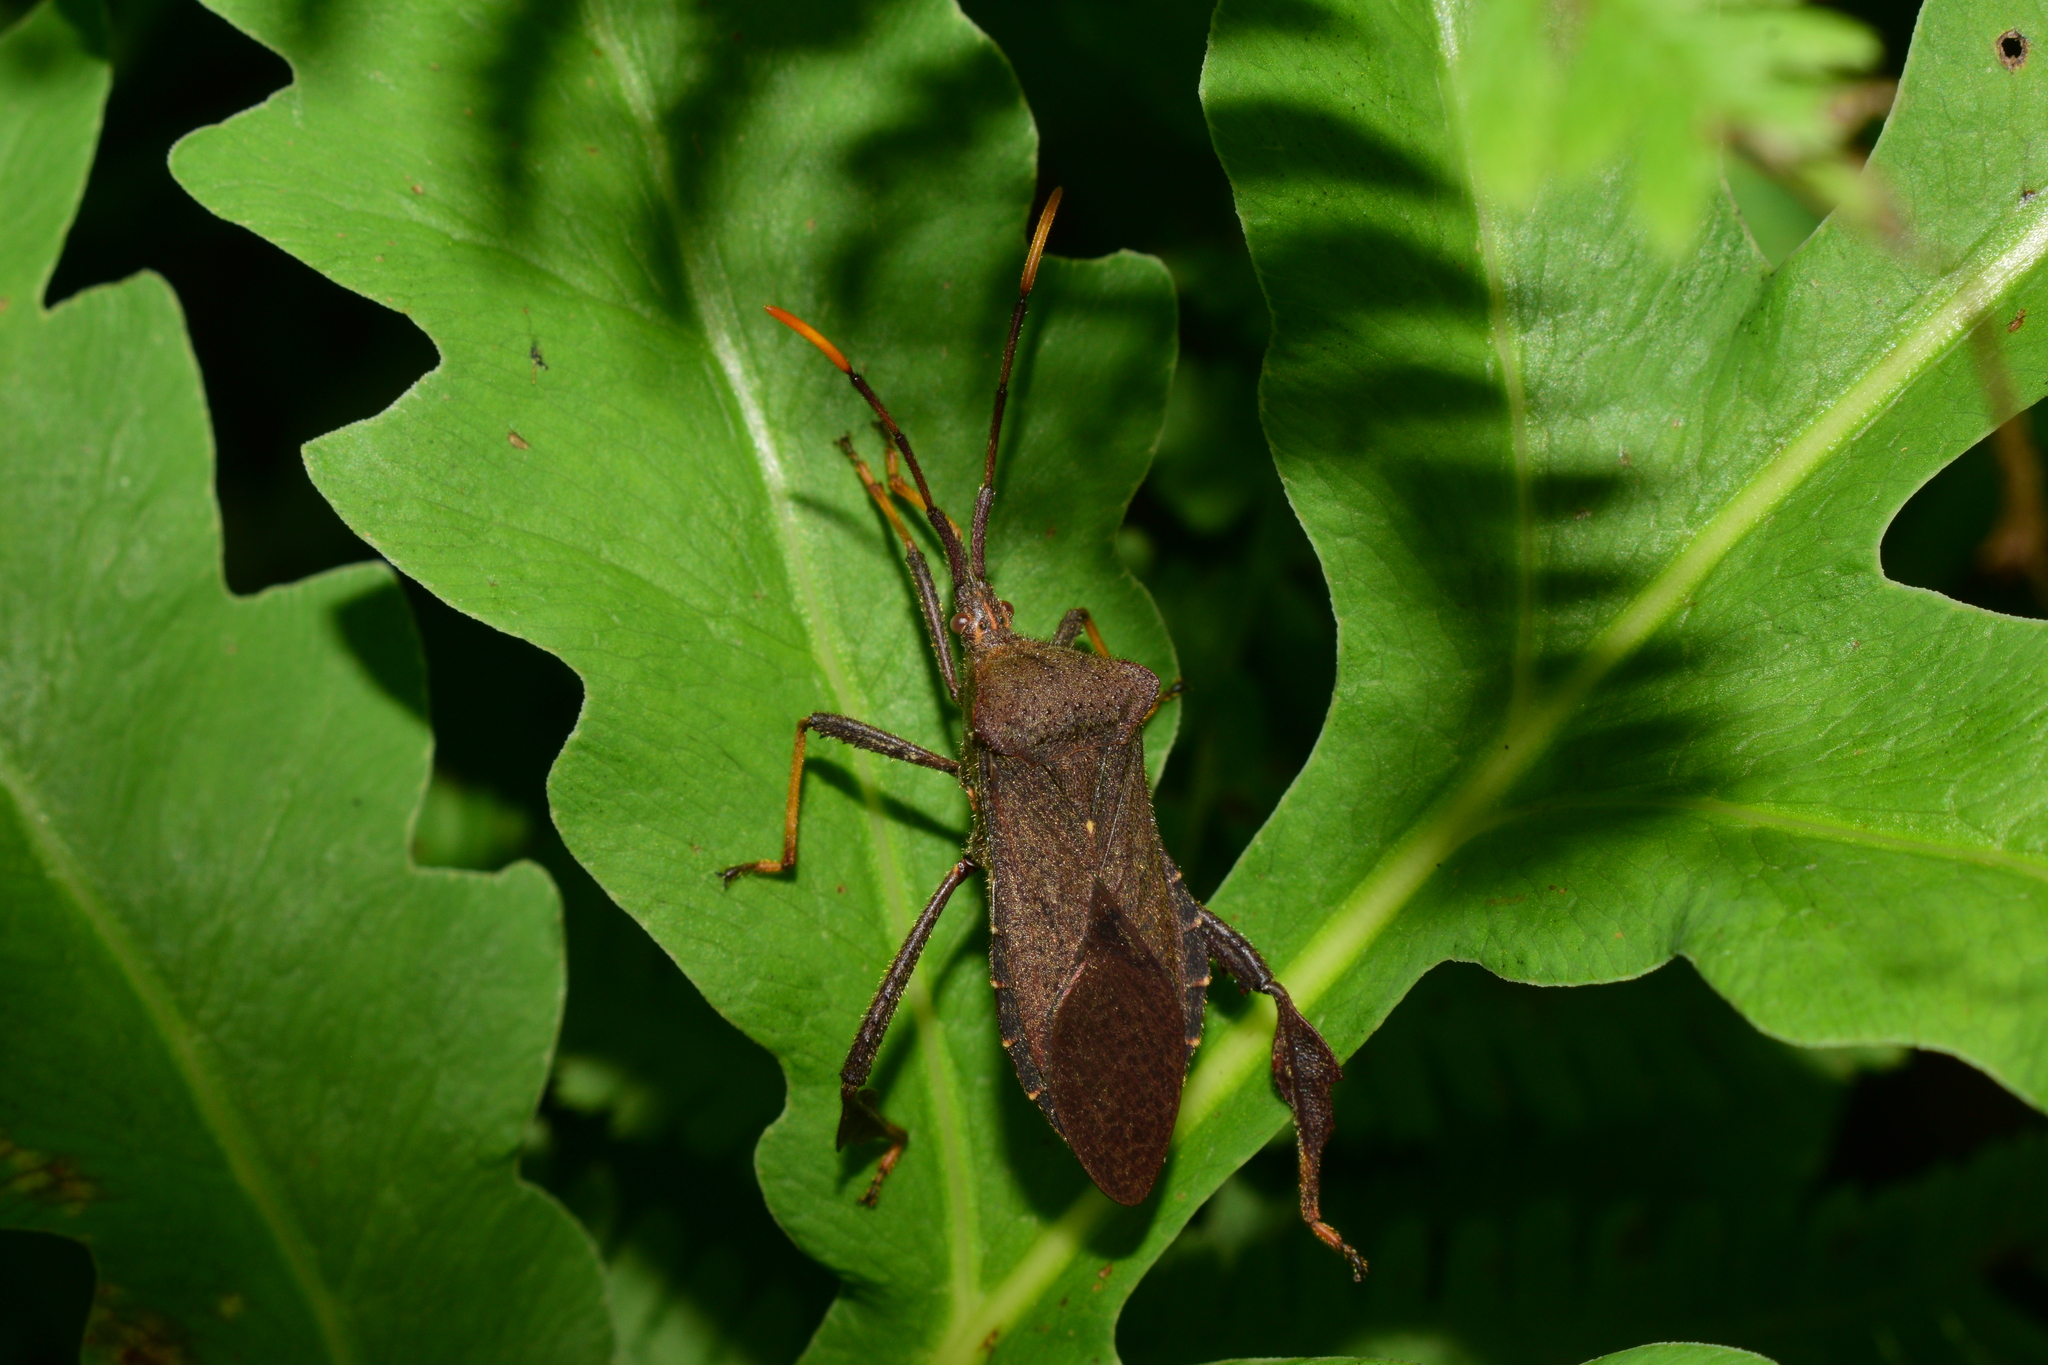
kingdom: Animalia
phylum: Arthropoda
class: Insecta
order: Hemiptera
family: Coreidae
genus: Acanthocephala
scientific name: Acanthocephala terminalis
